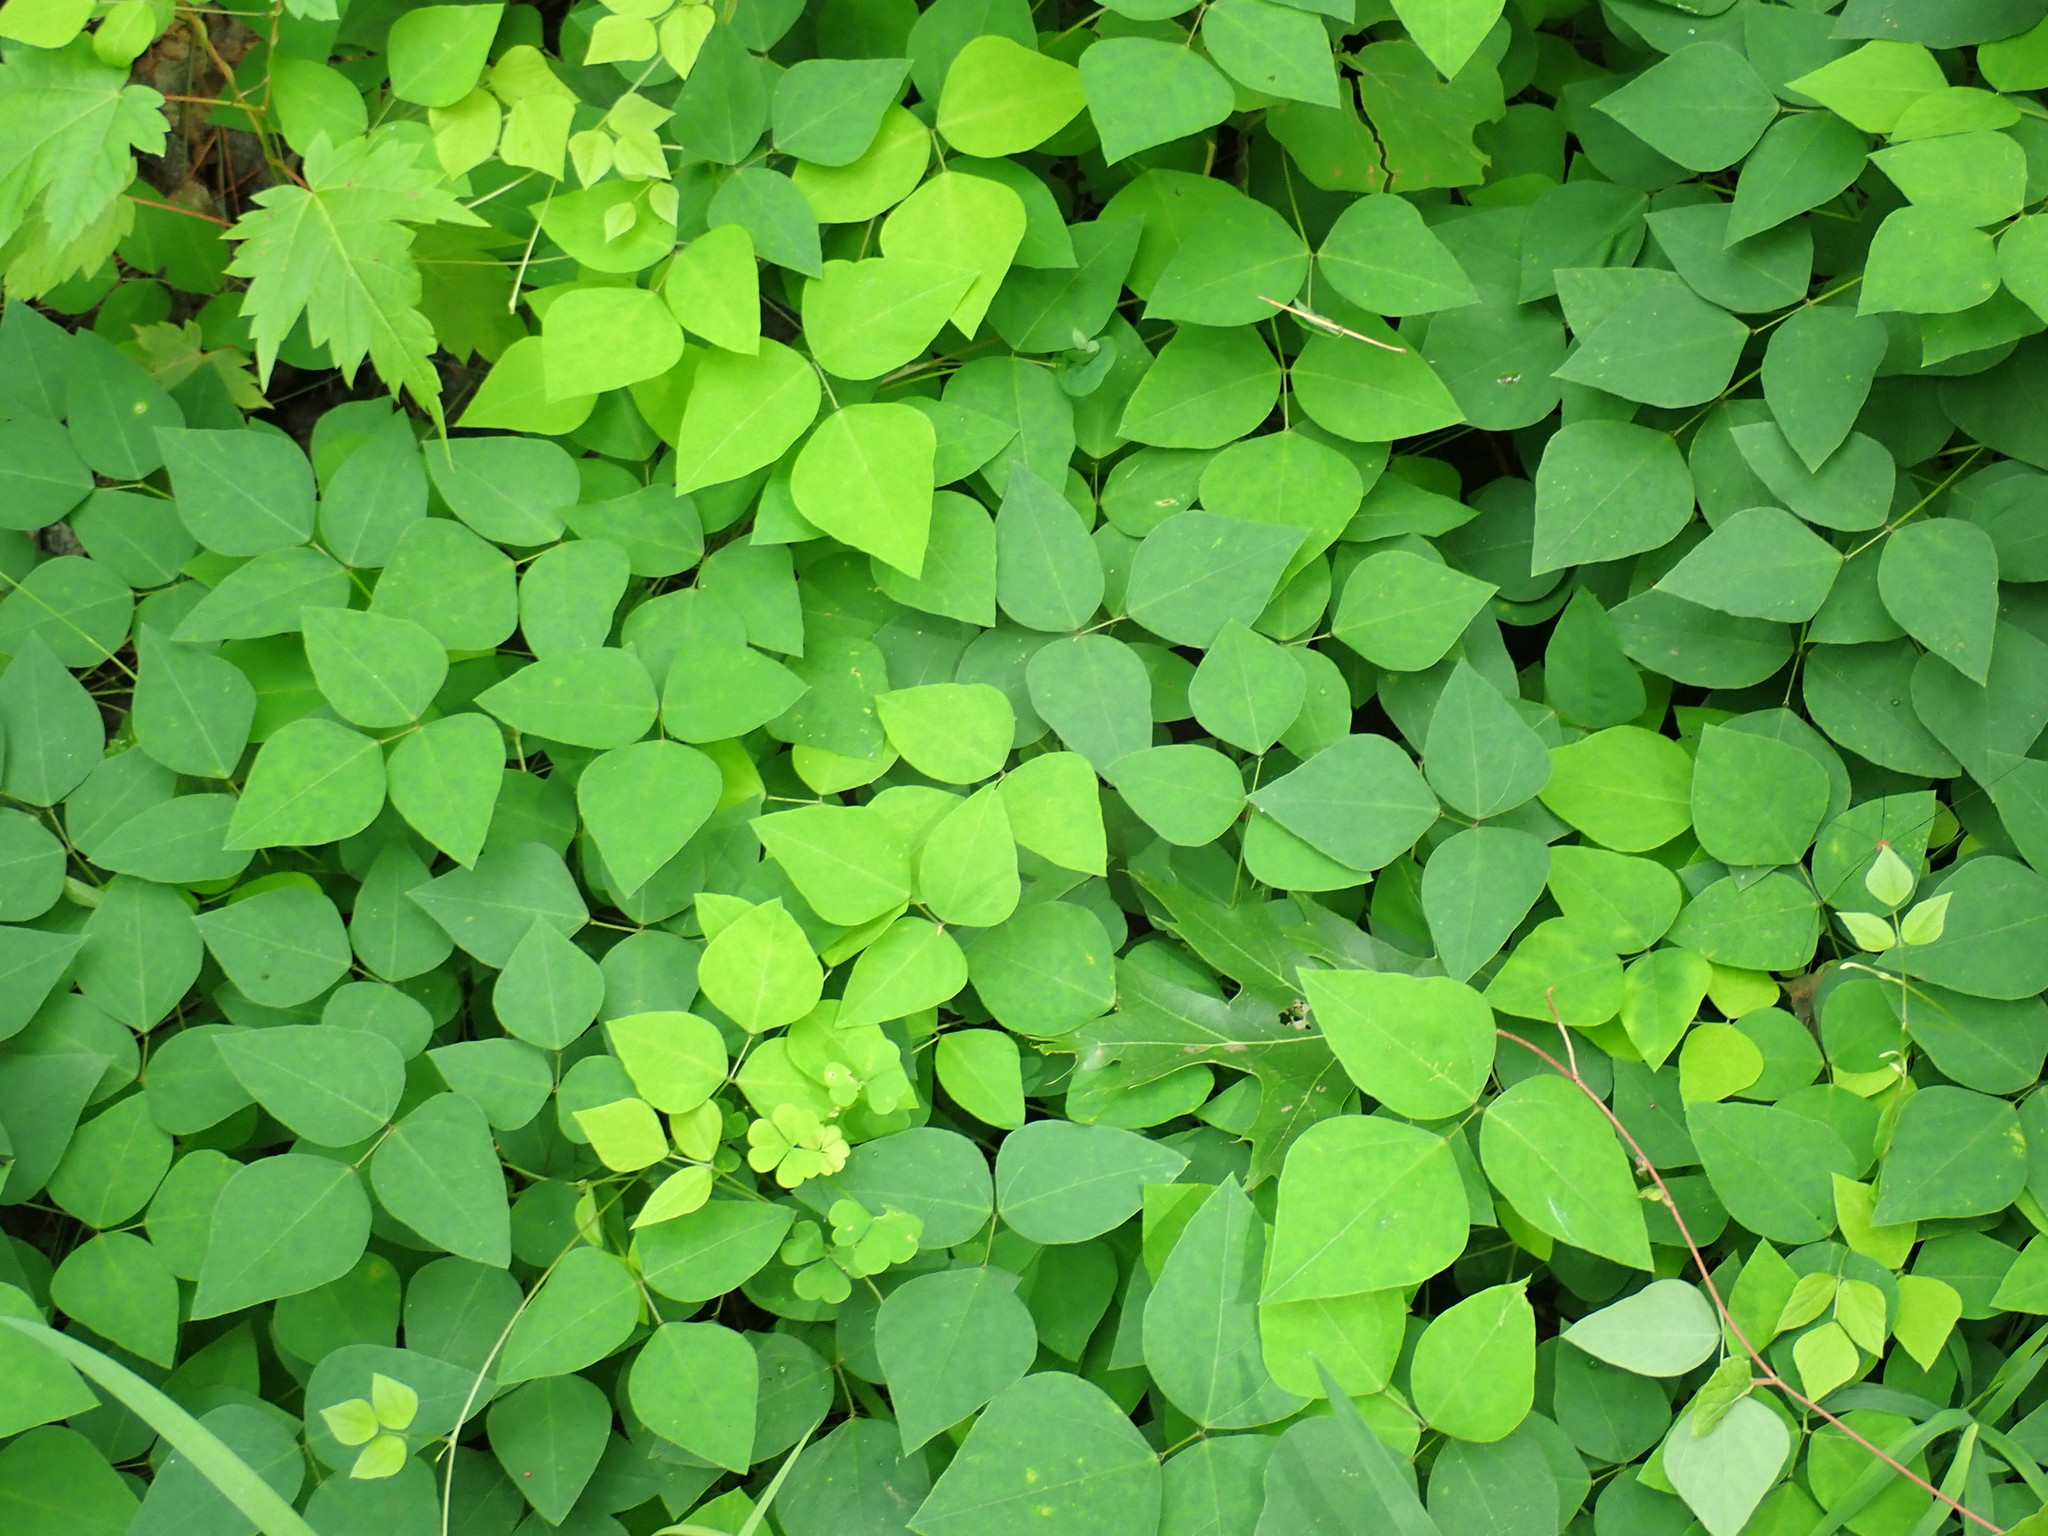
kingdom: Plantae
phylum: Tracheophyta
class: Magnoliopsida
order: Fabales
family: Fabaceae
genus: Amphicarpaea
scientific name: Amphicarpaea bracteata
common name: American hog peanut
